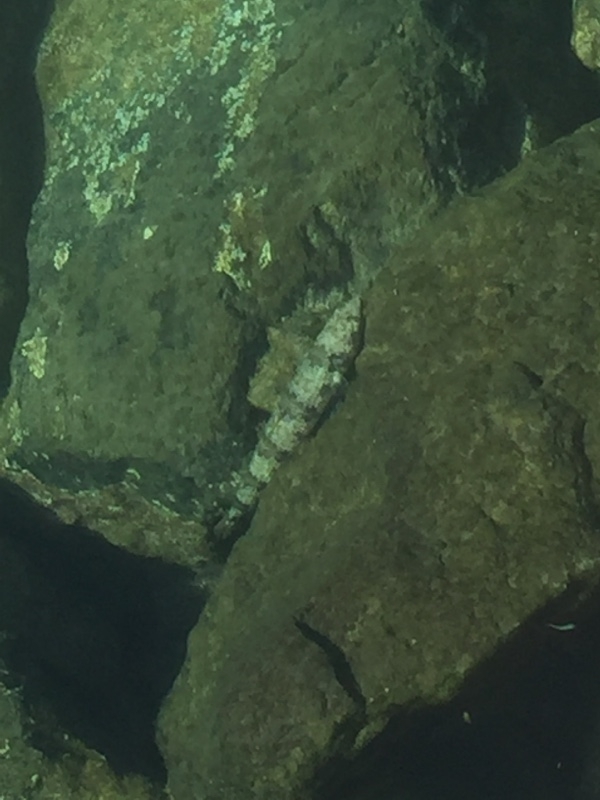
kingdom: Animalia
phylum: Chordata
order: Aulopiformes
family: Synodontidae
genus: Synodus
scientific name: Synodus synodus
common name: Red lizardfish
